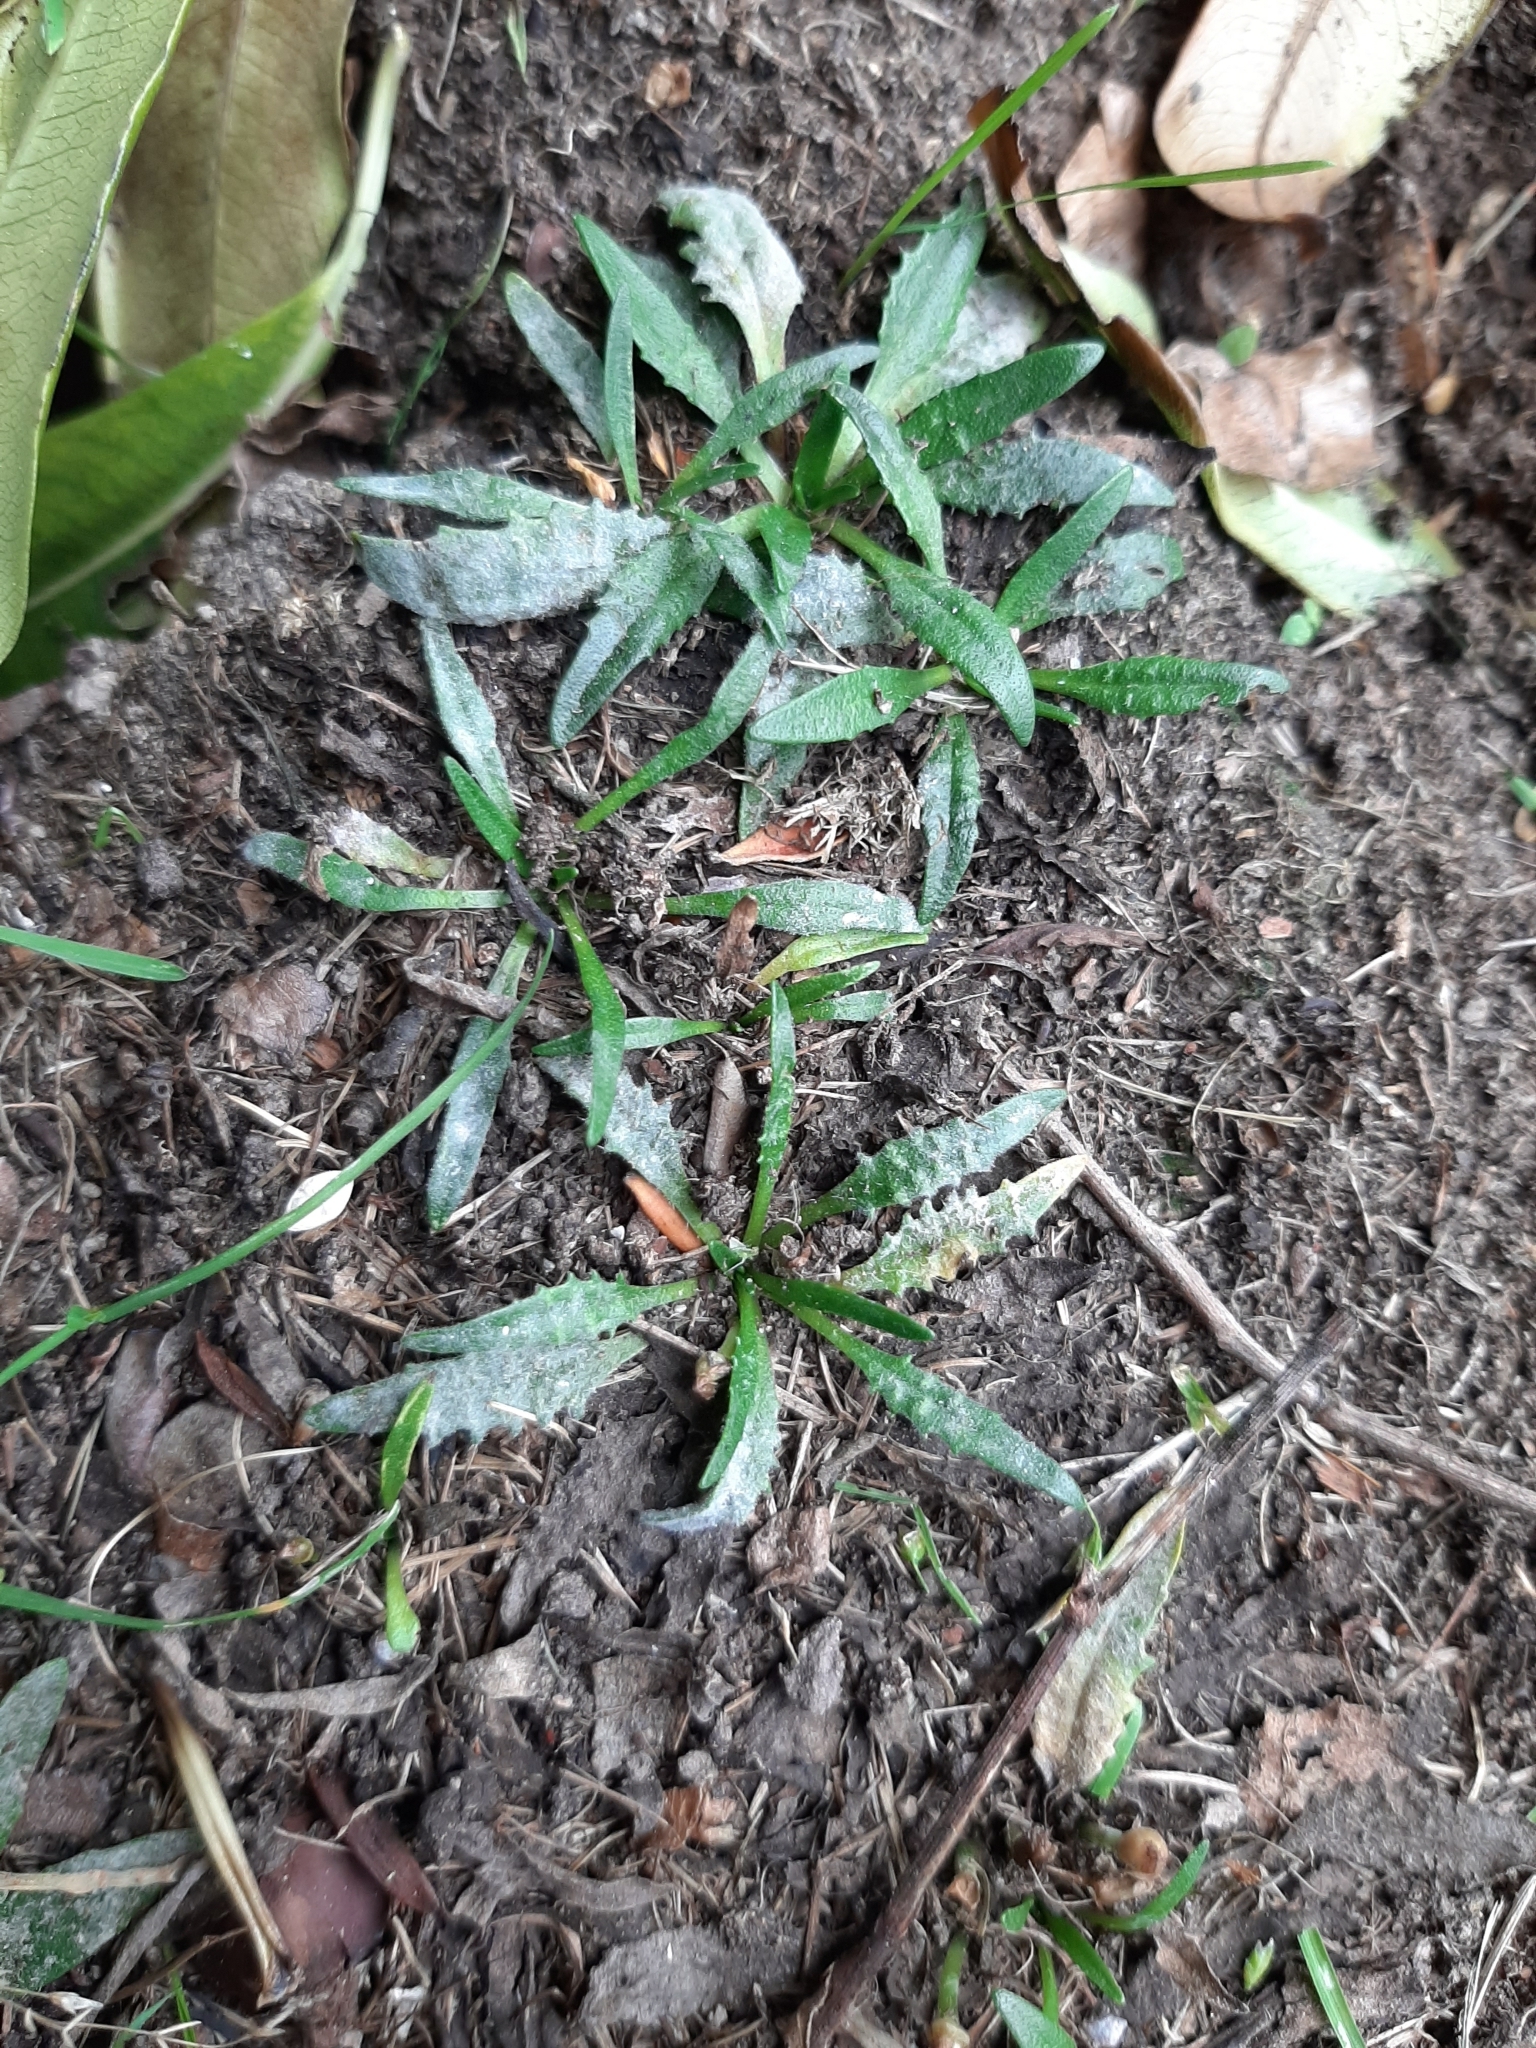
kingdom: Plantae
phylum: Tracheophyta
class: Magnoliopsida
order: Lamiales
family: Plantaginaceae
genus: Plantago
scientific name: Plantago triandra
